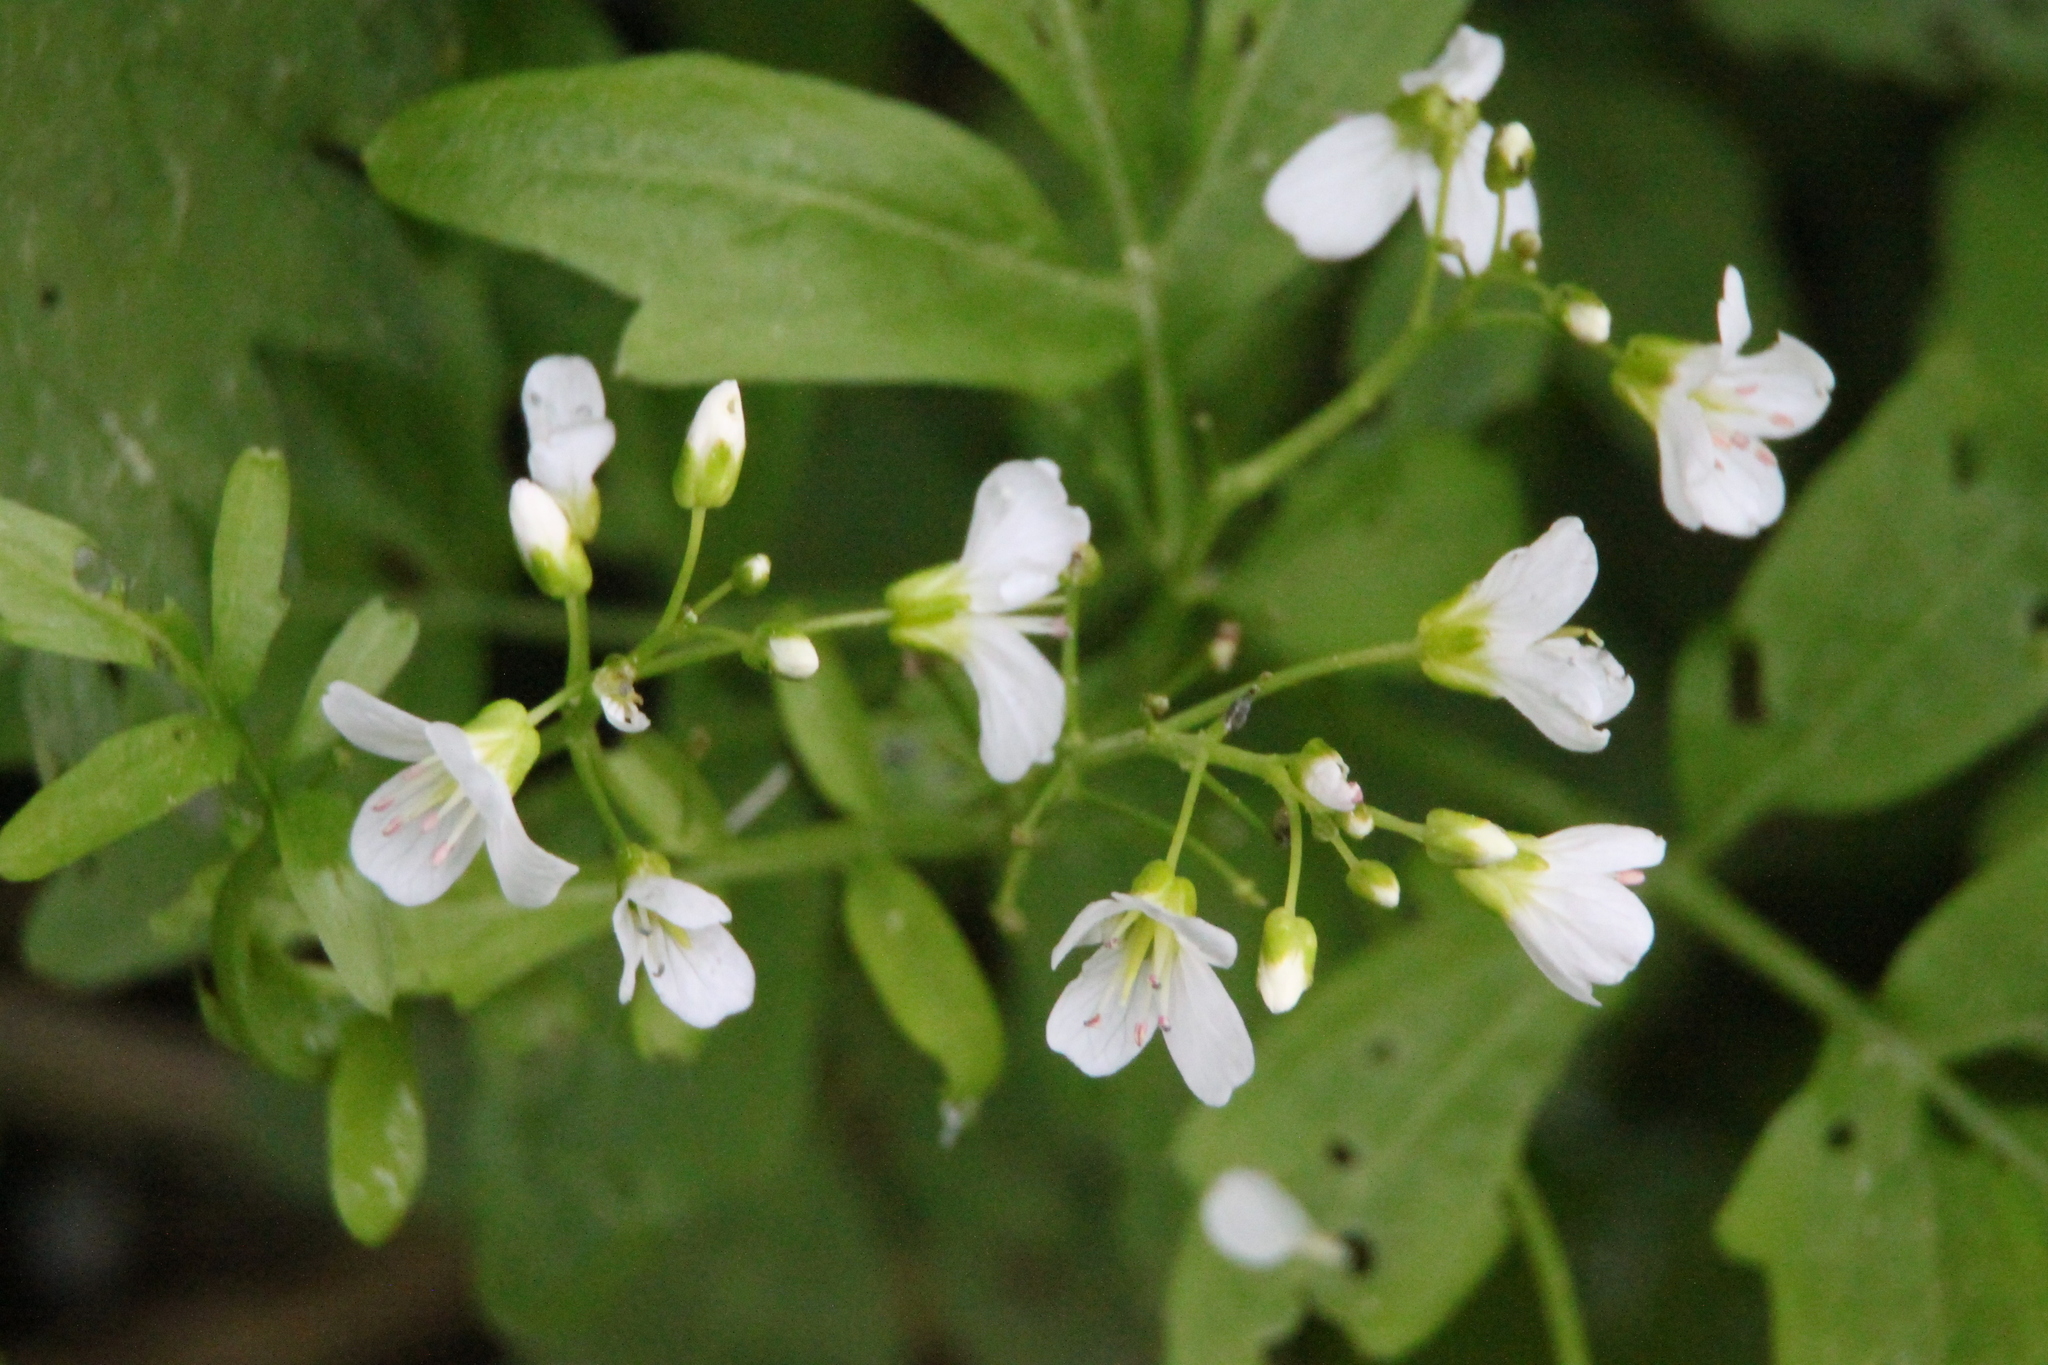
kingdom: Plantae
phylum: Tracheophyta
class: Magnoliopsida
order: Brassicales
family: Brassicaceae
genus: Cardamine
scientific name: Cardamine amara
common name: Large bitter-cress
